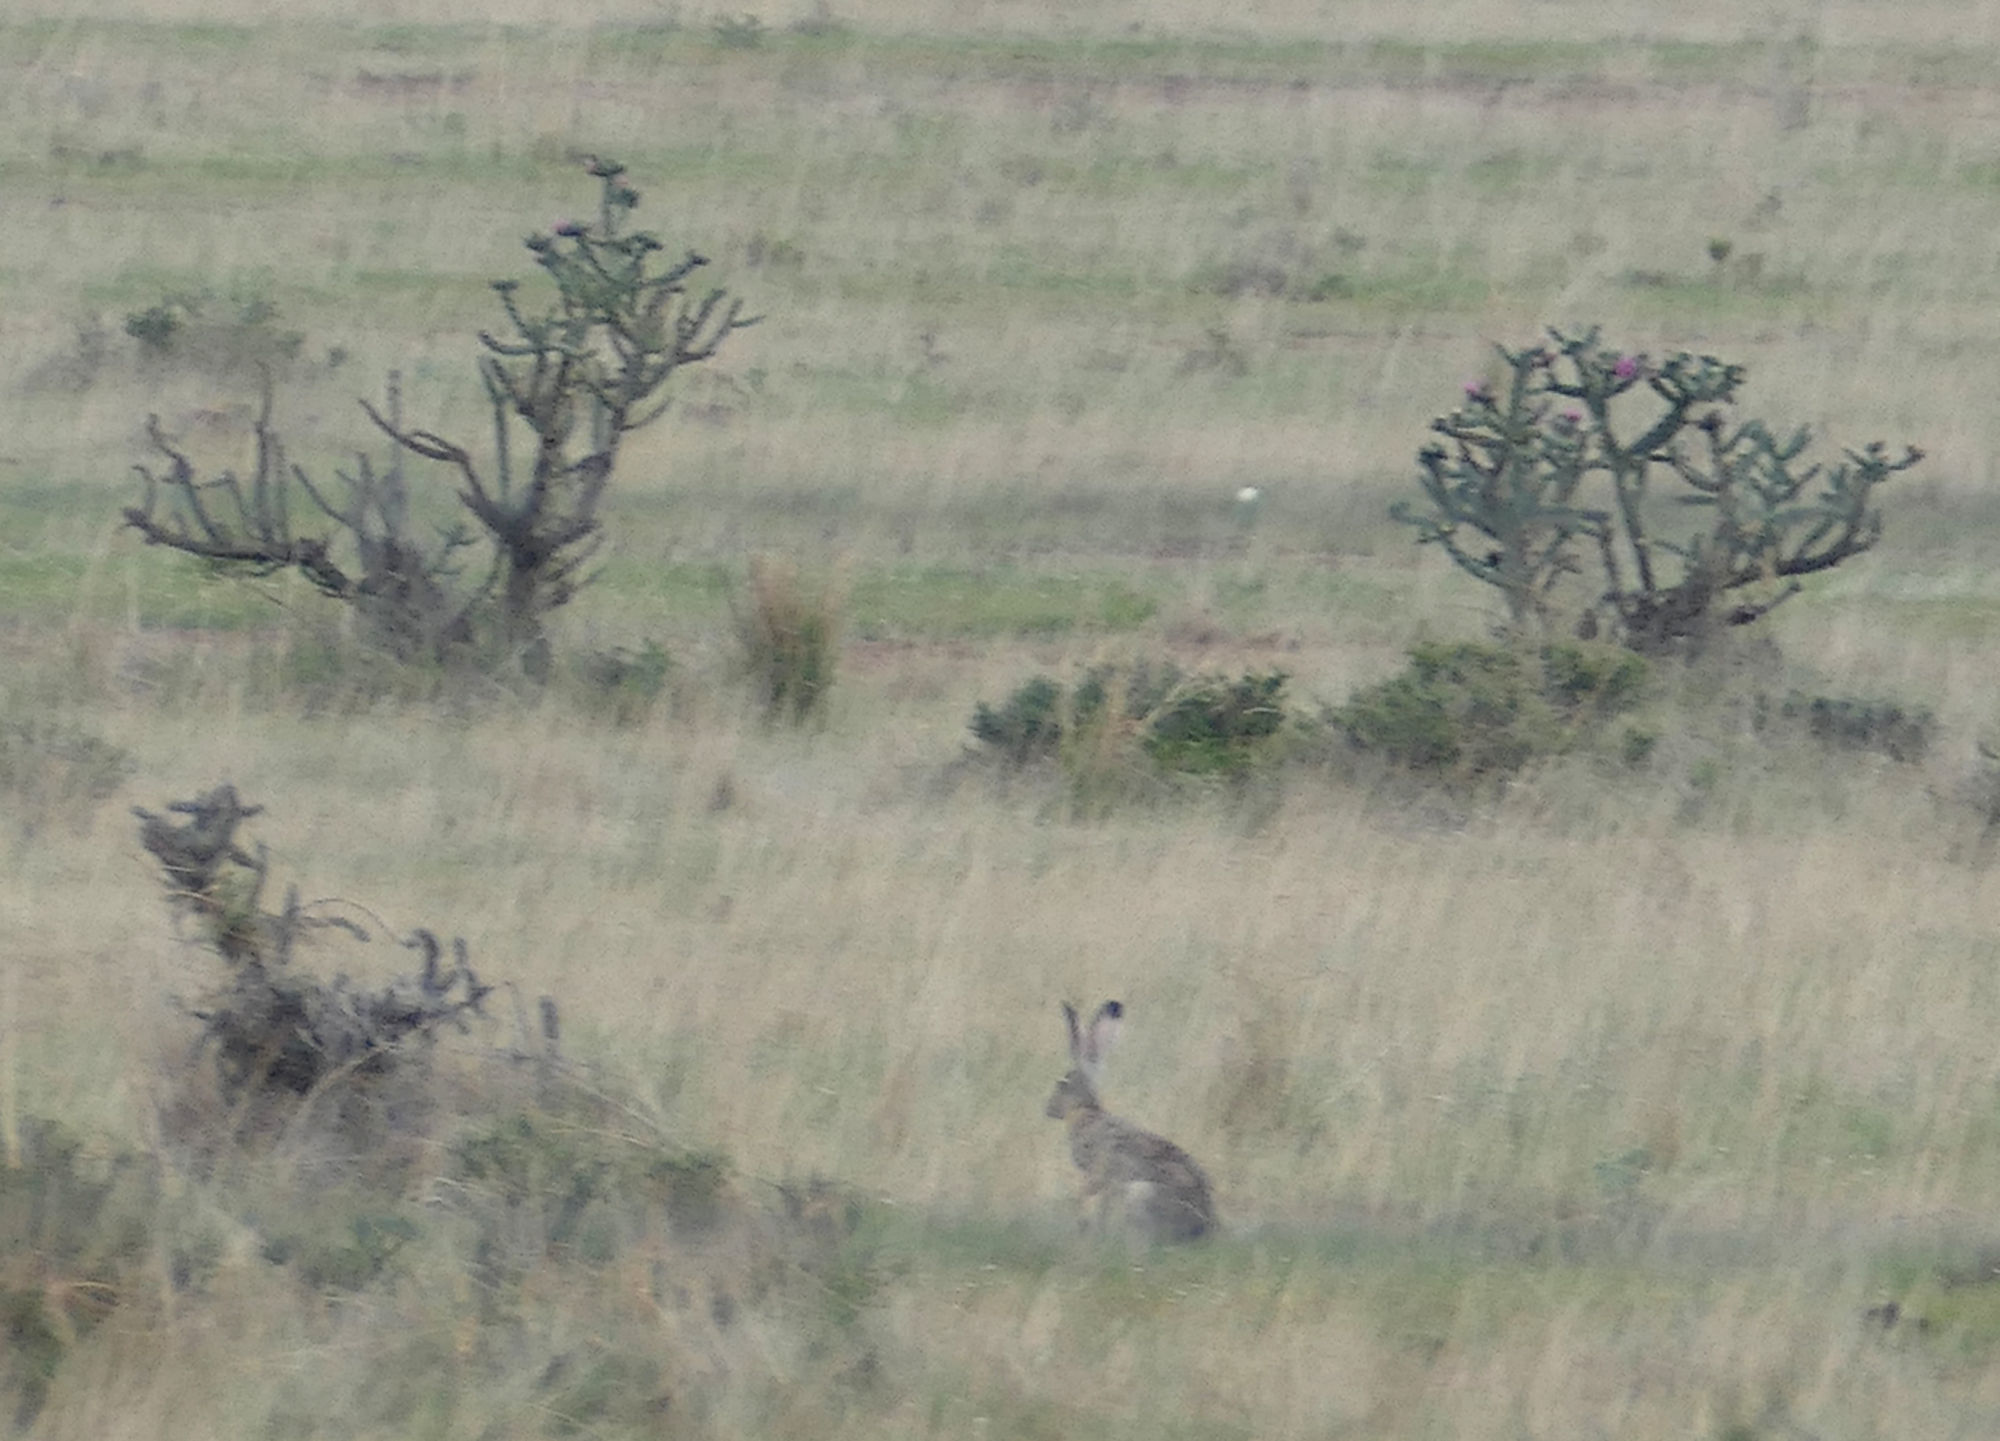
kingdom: Animalia
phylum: Chordata
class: Mammalia
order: Lagomorpha
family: Leporidae
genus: Lepus
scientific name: Lepus californicus
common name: Black-tailed jackrabbit
